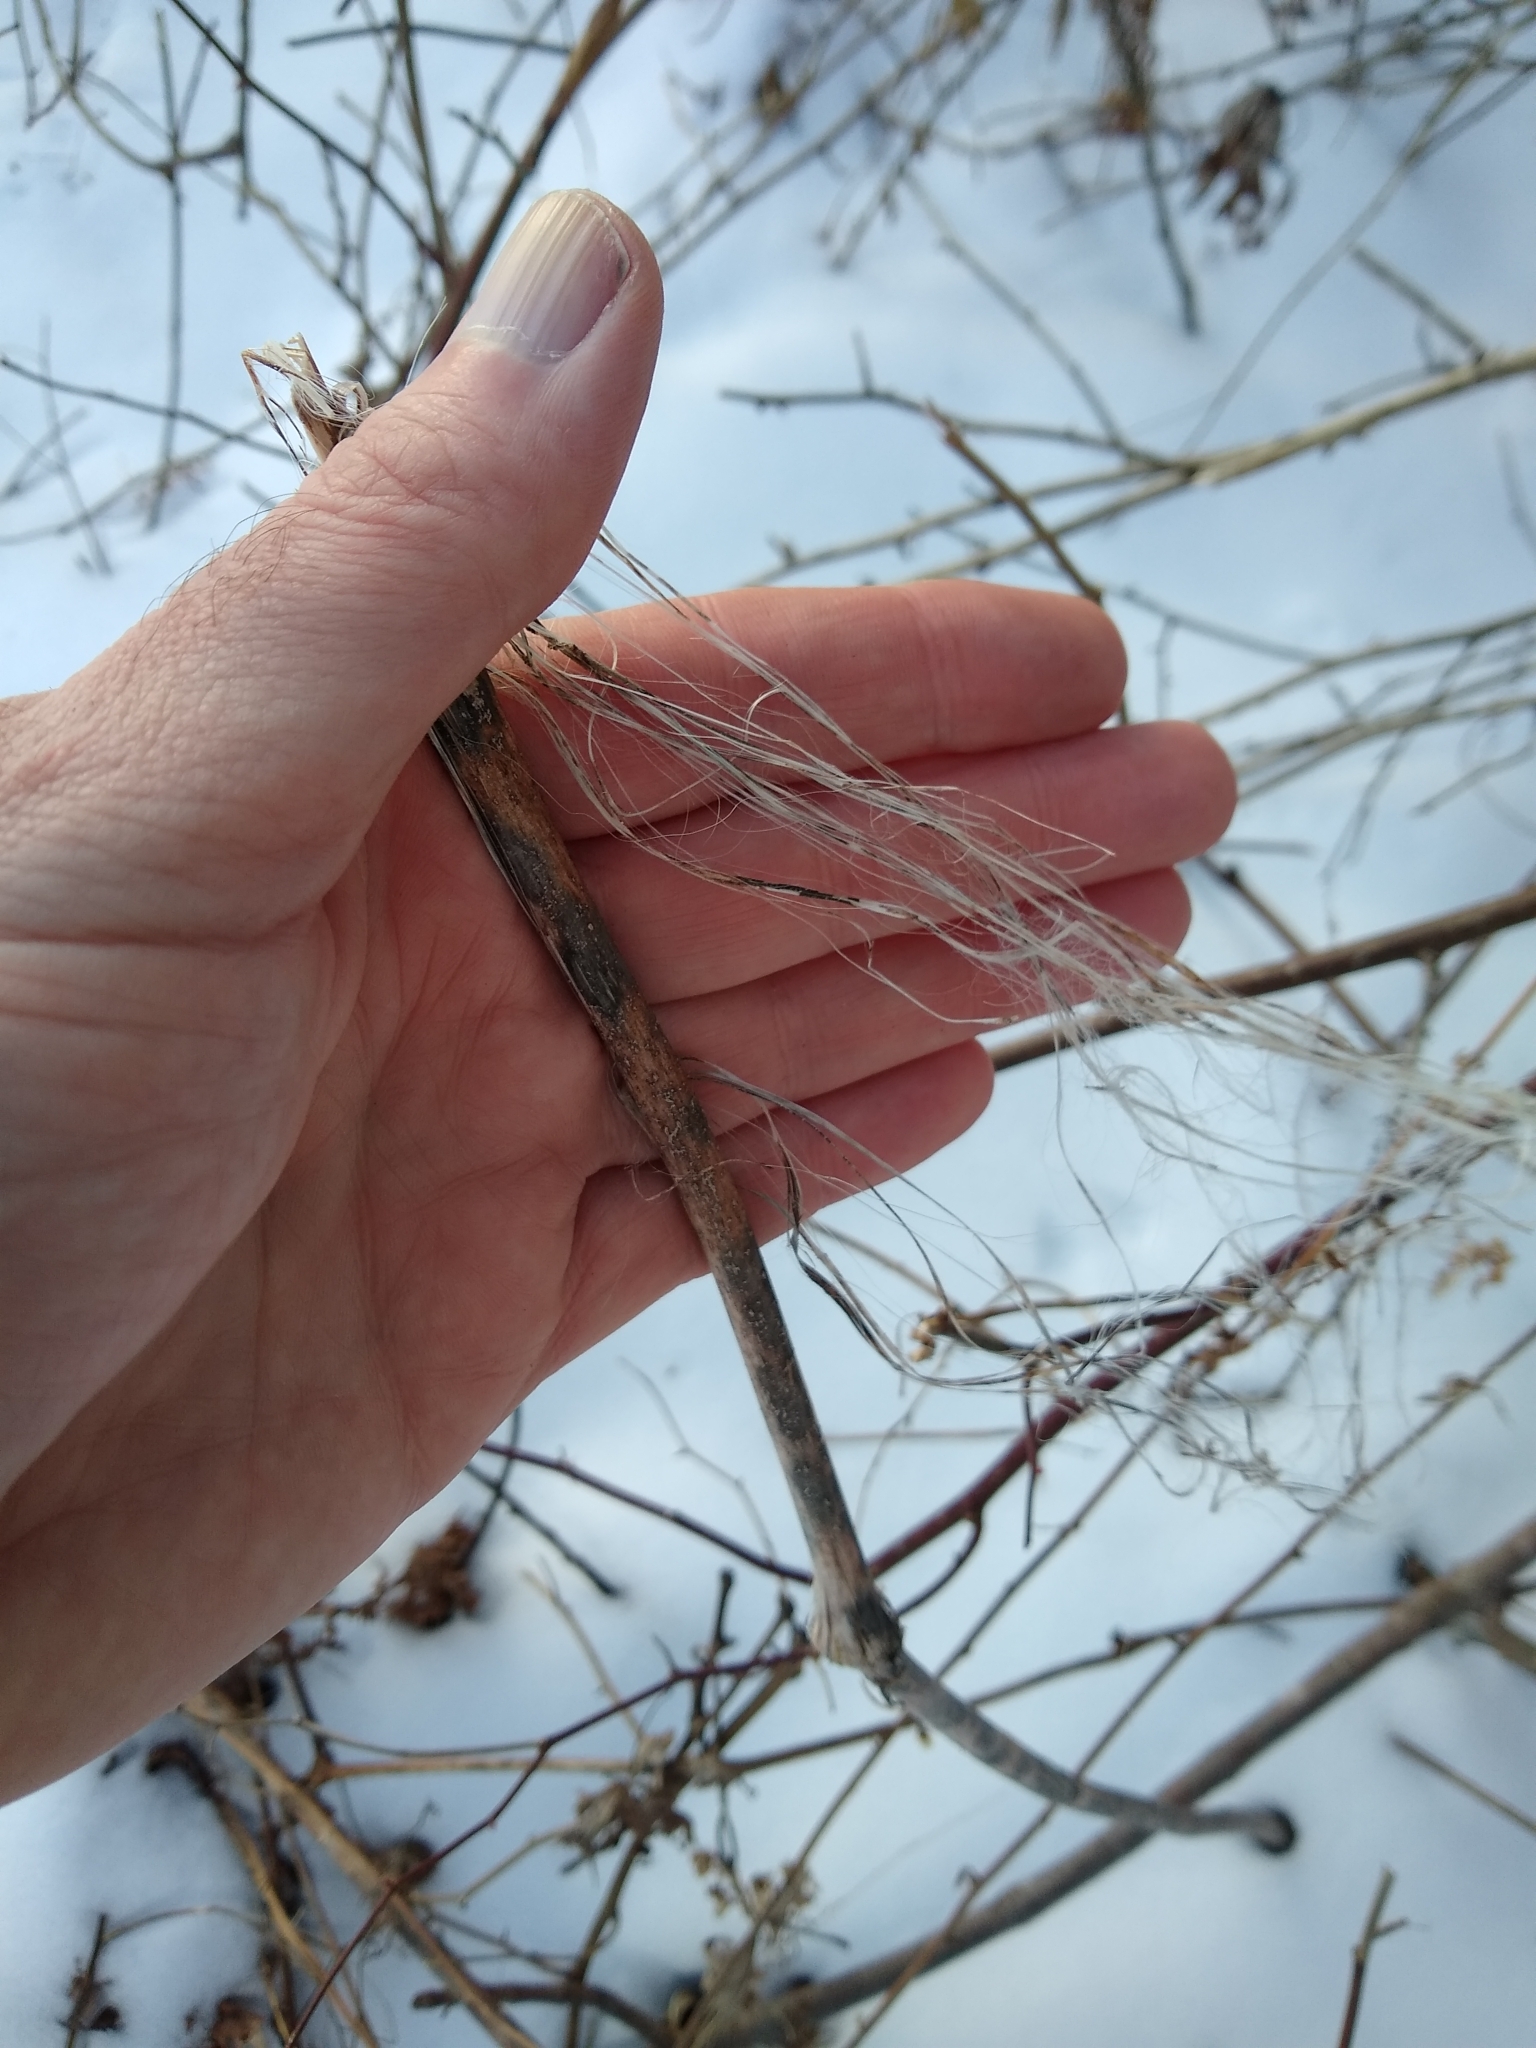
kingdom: Plantae
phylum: Tracheophyta
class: Magnoliopsida
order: Gentianales
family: Apocynaceae
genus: Asclepias
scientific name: Asclepias syriaca
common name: Common milkweed
